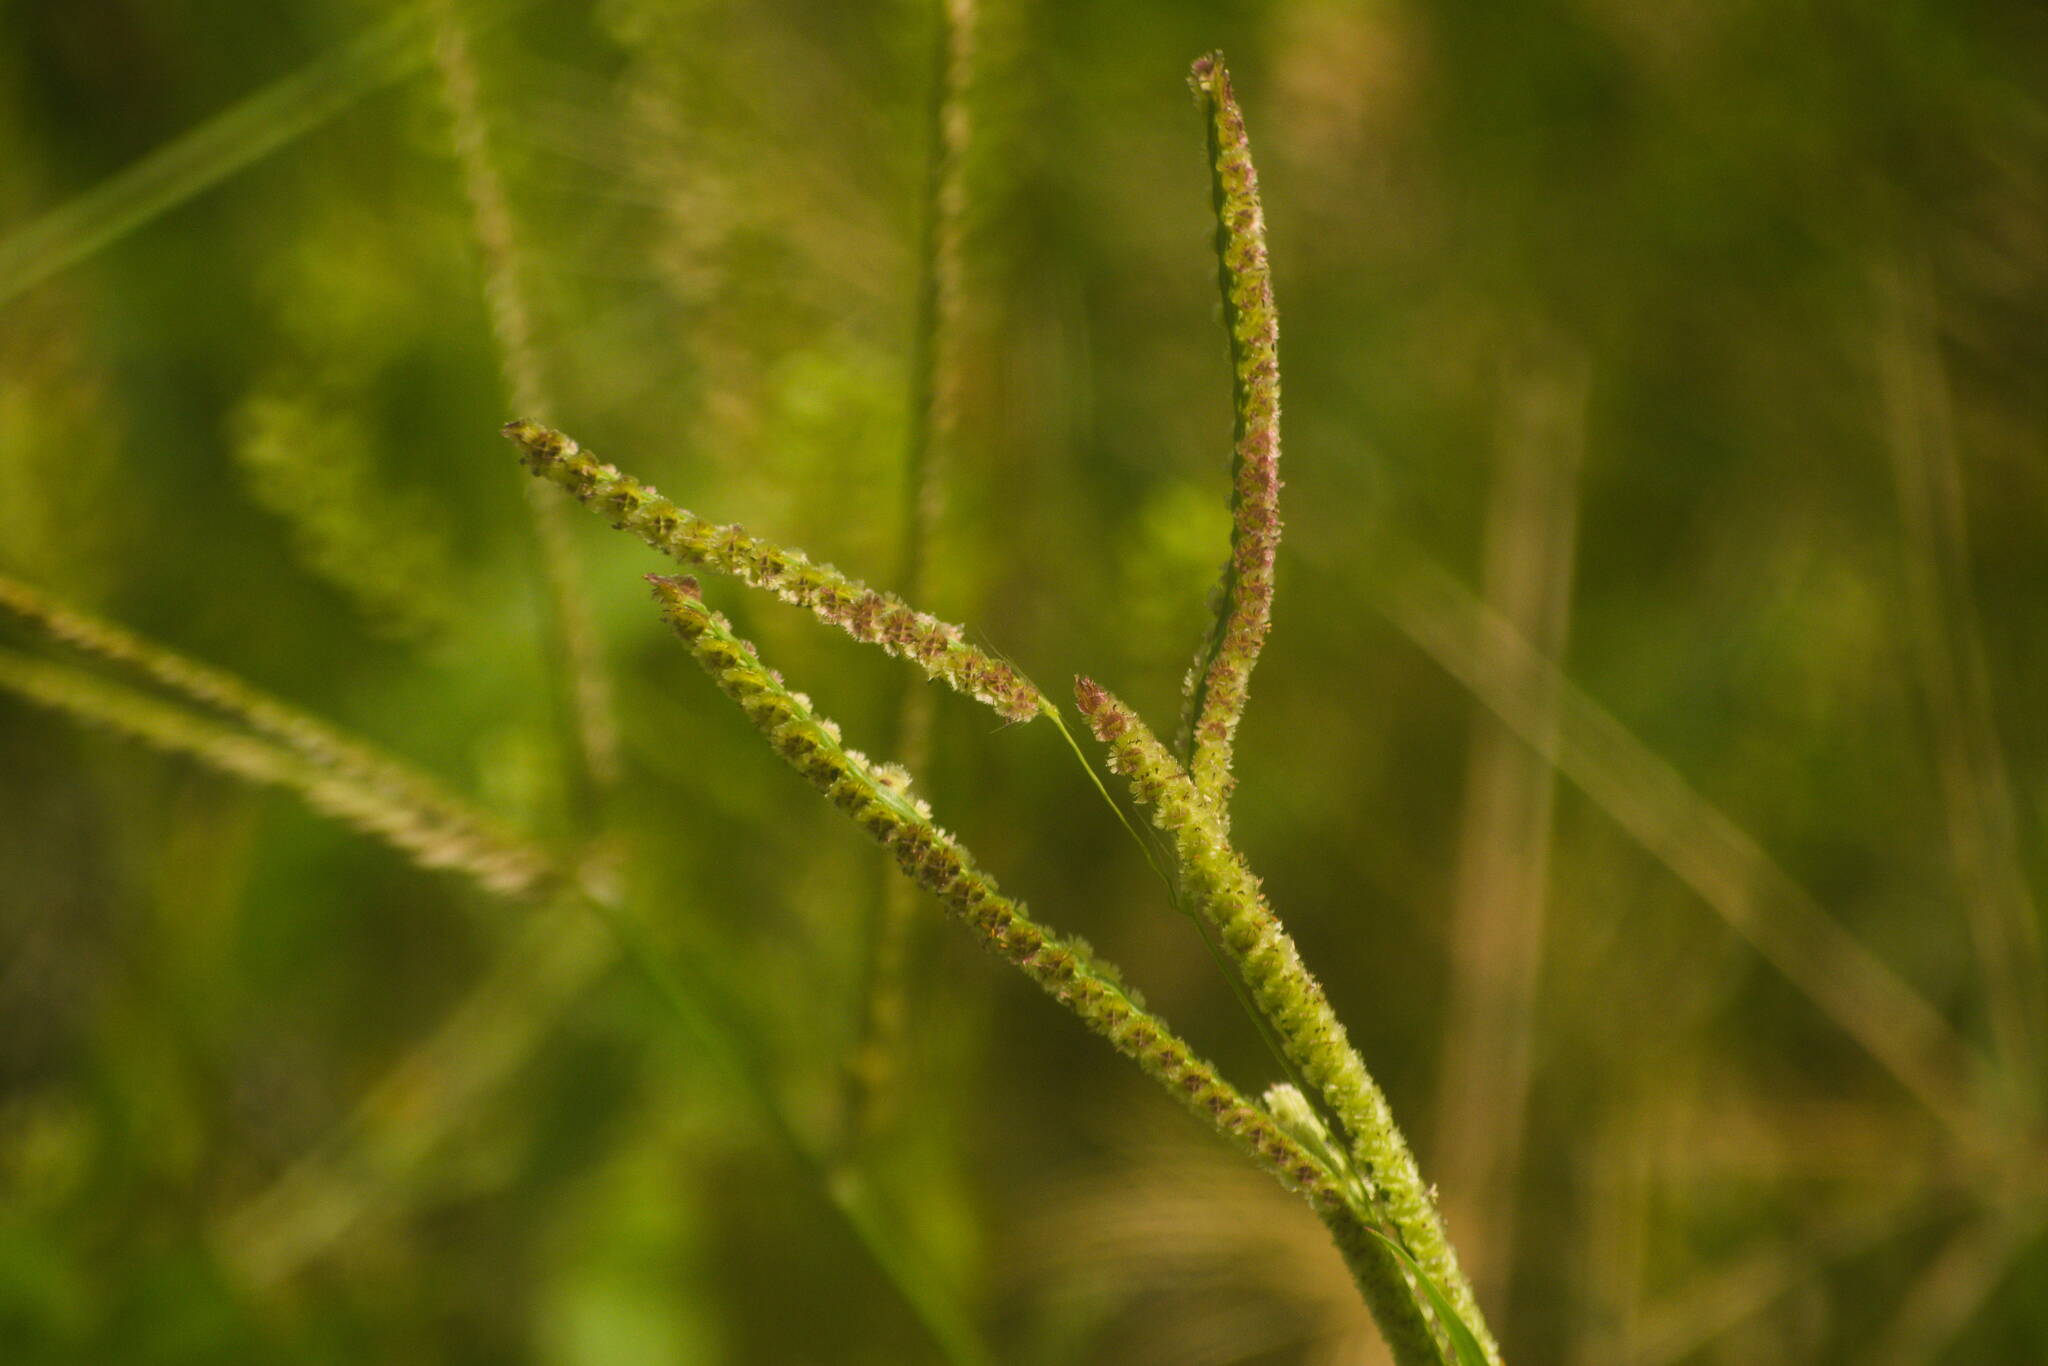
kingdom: Plantae
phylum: Tracheophyta
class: Liliopsida
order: Poales
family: Poaceae
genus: Paspalum
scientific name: Paspalum fimbriatum
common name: Panama crowngrass
